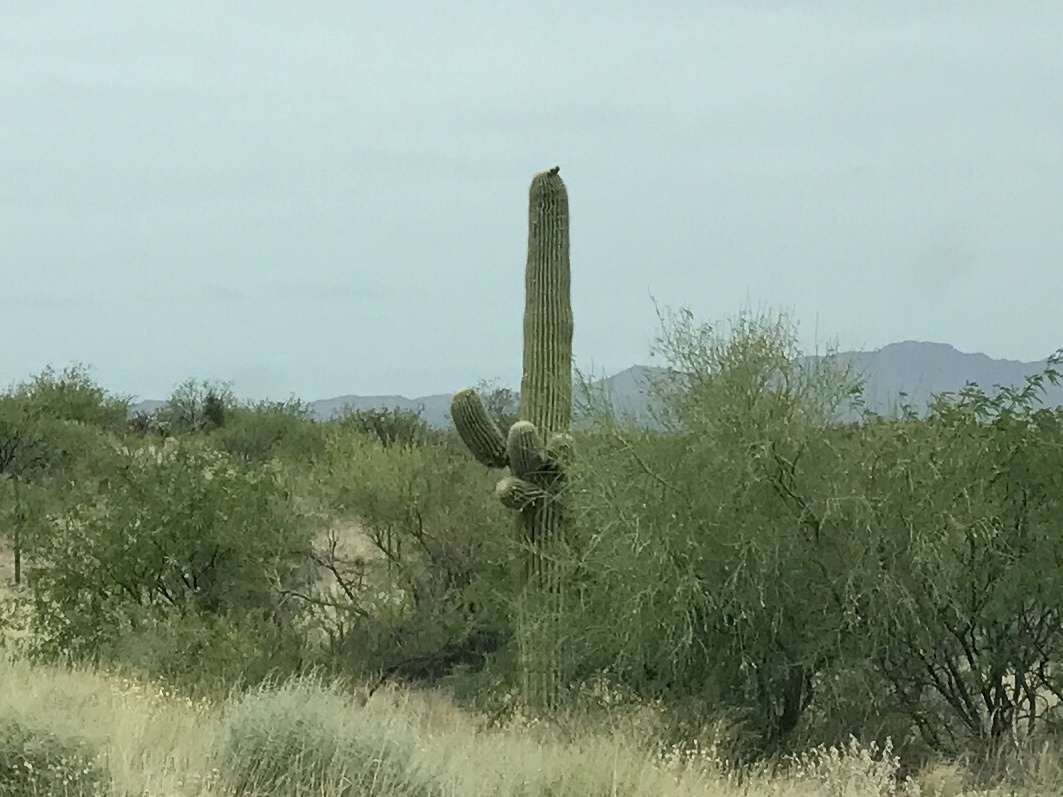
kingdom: Plantae
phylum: Tracheophyta
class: Magnoliopsida
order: Caryophyllales
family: Cactaceae
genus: Carnegiea
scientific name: Carnegiea gigantea
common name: Saguaro
